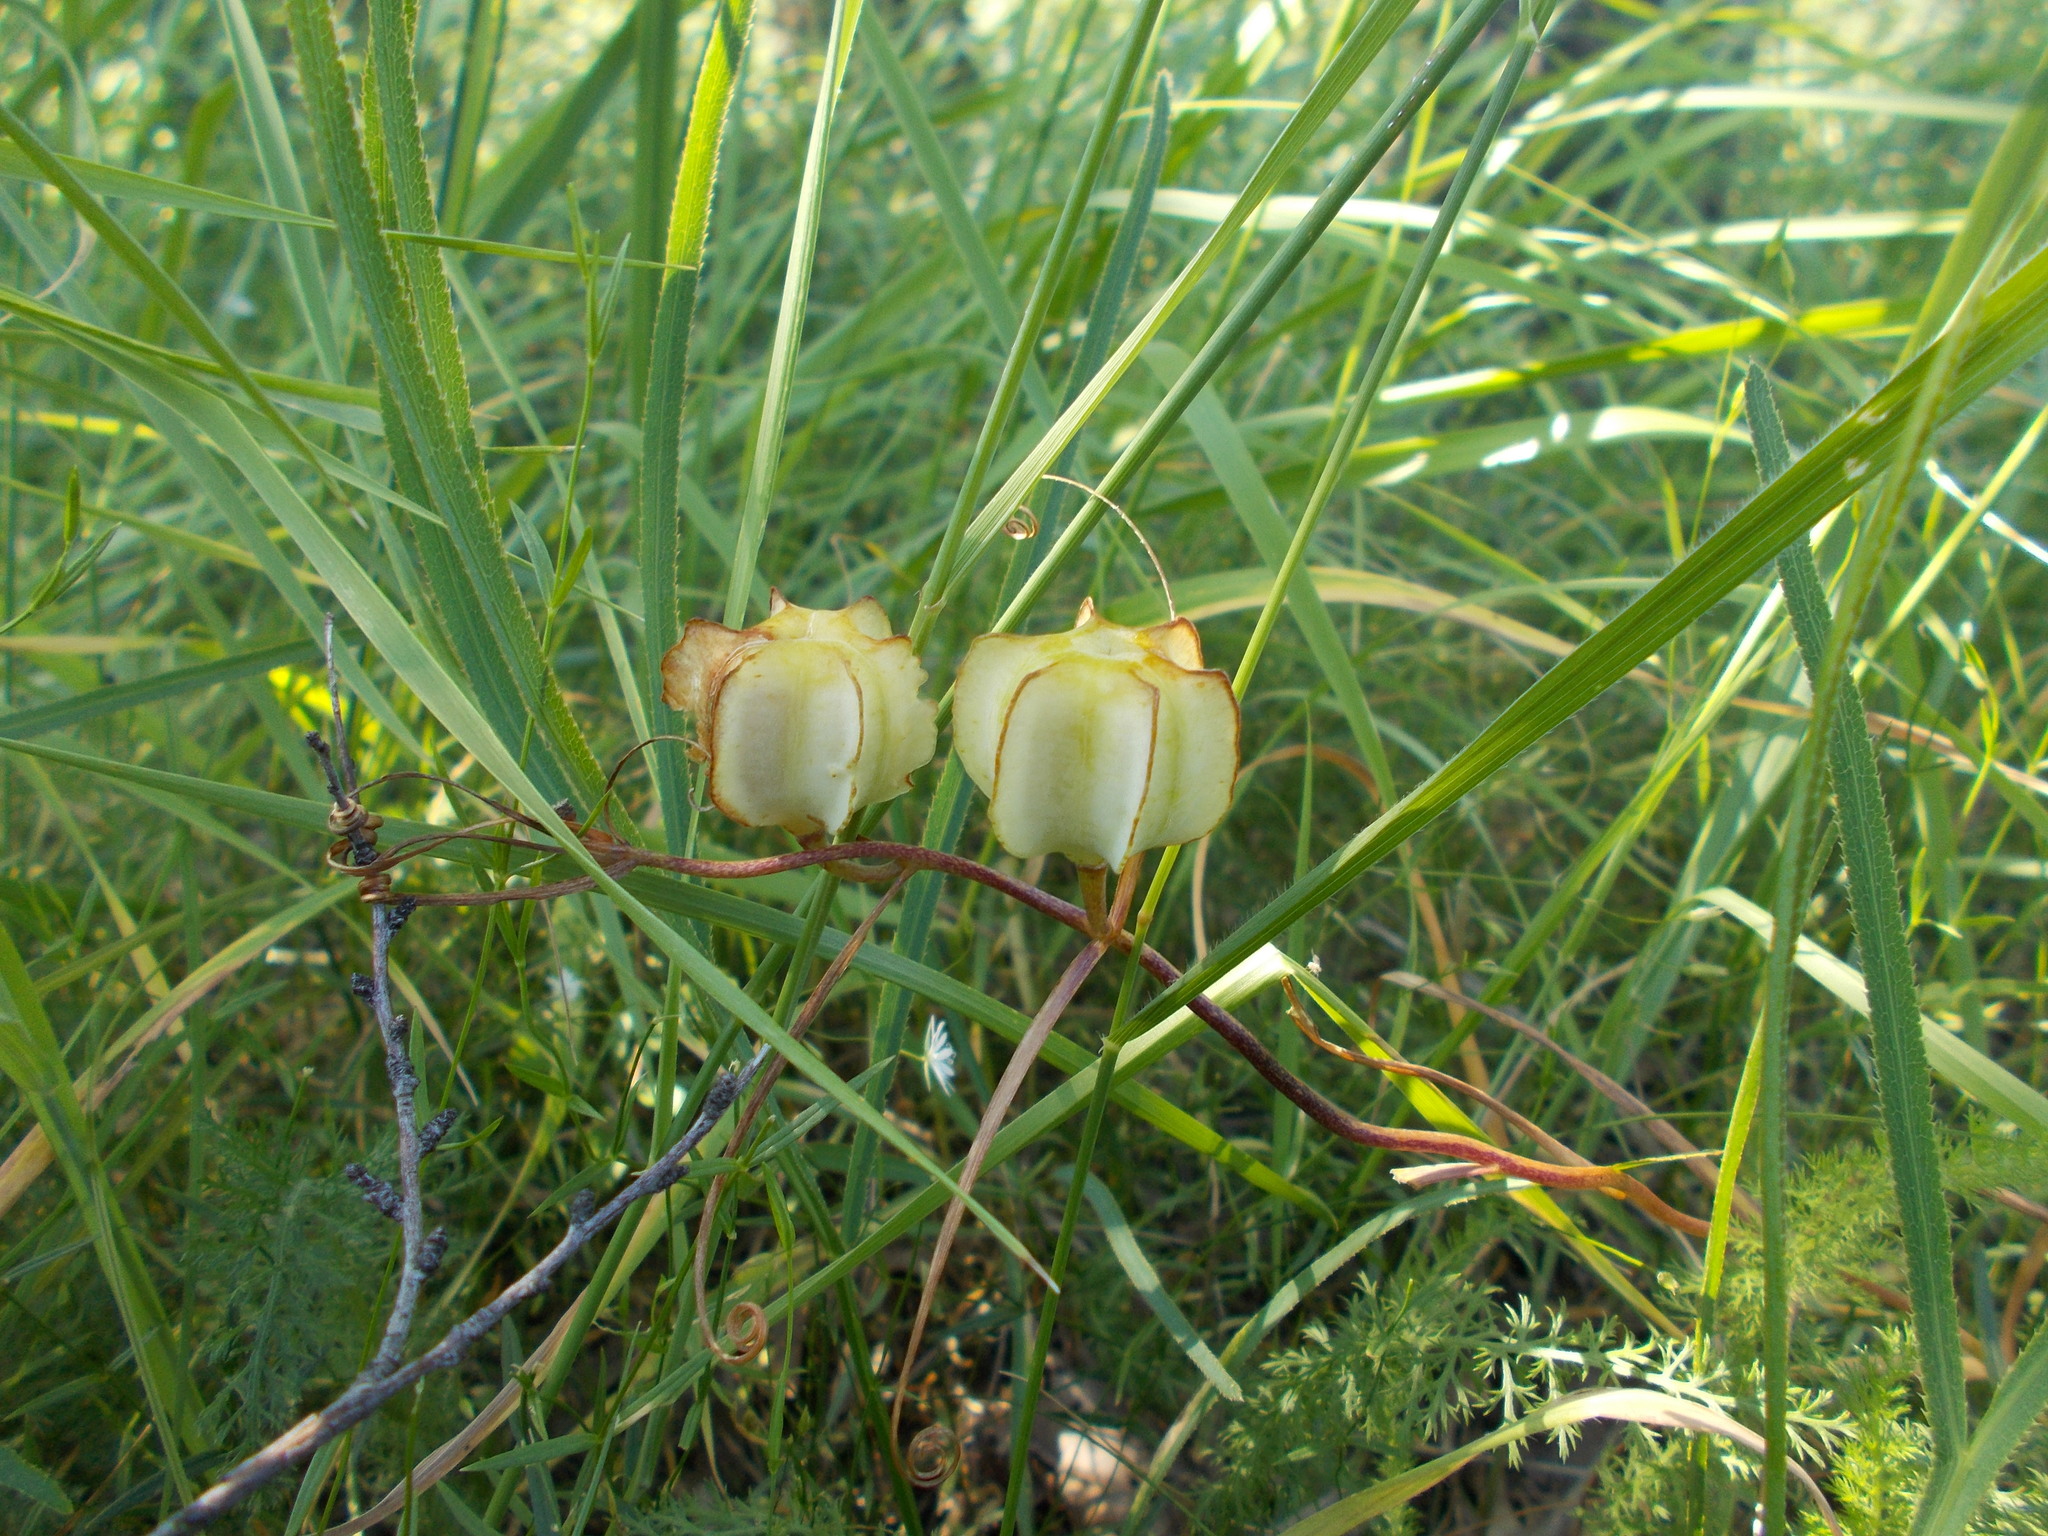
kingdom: Plantae
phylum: Tracheophyta
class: Liliopsida
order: Liliales
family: Liliaceae
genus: Fritillaria
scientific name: Fritillaria ruthenica
